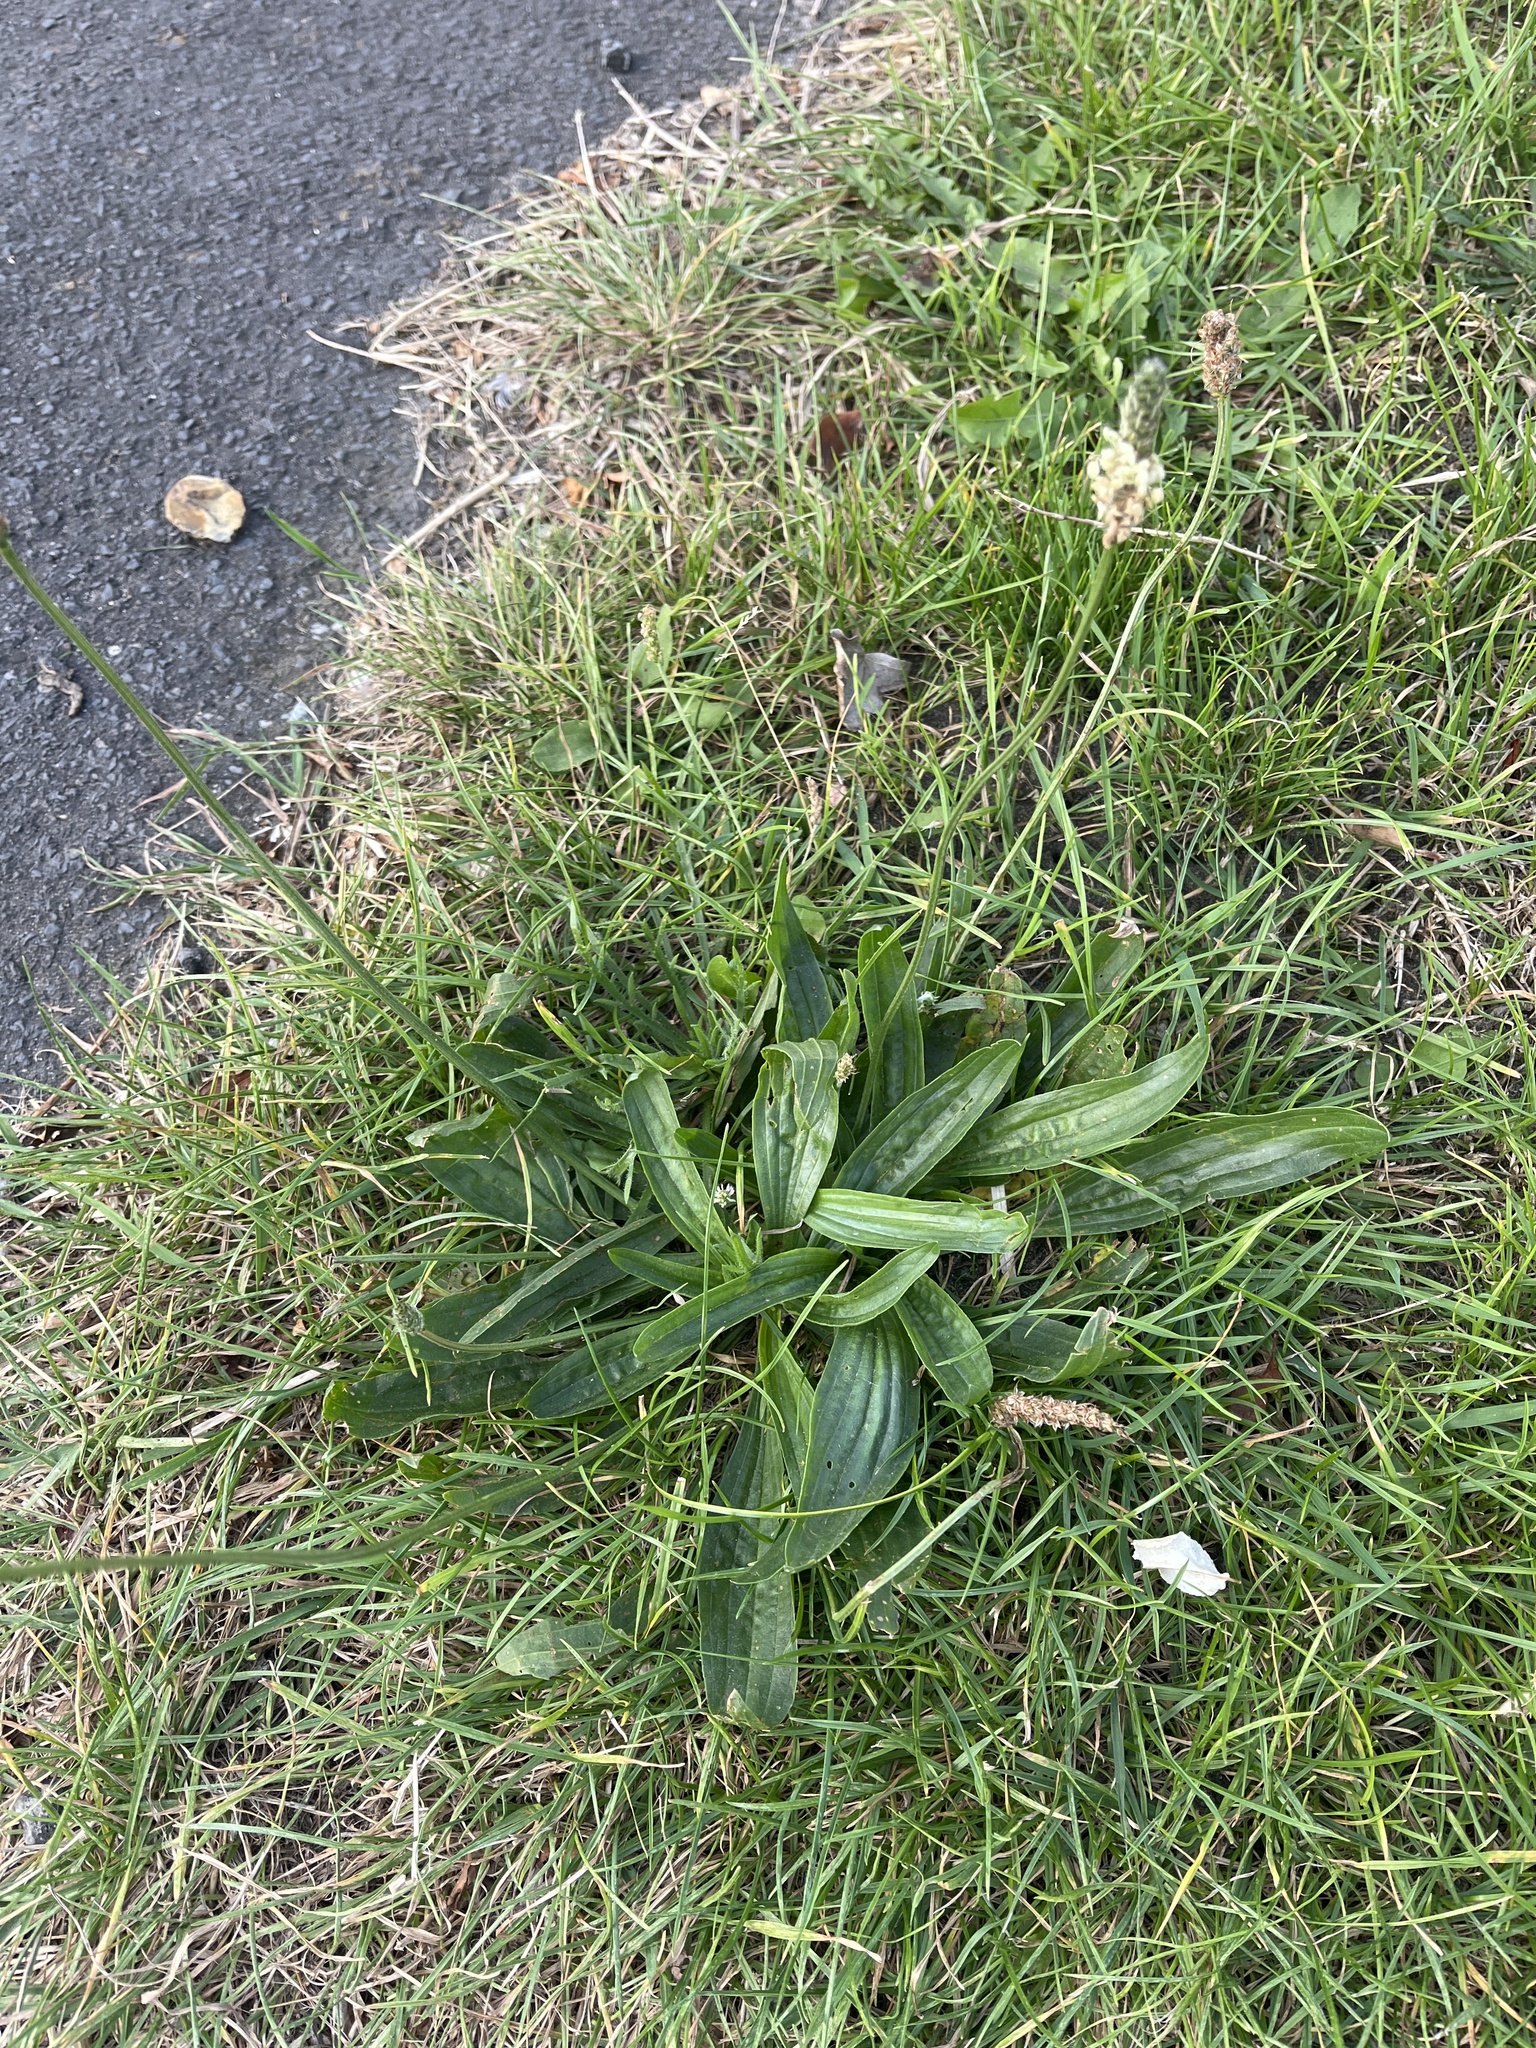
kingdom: Plantae
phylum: Tracheophyta
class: Magnoliopsida
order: Lamiales
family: Plantaginaceae
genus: Plantago
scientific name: Plantago lanceolata
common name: Ribwort plantain
